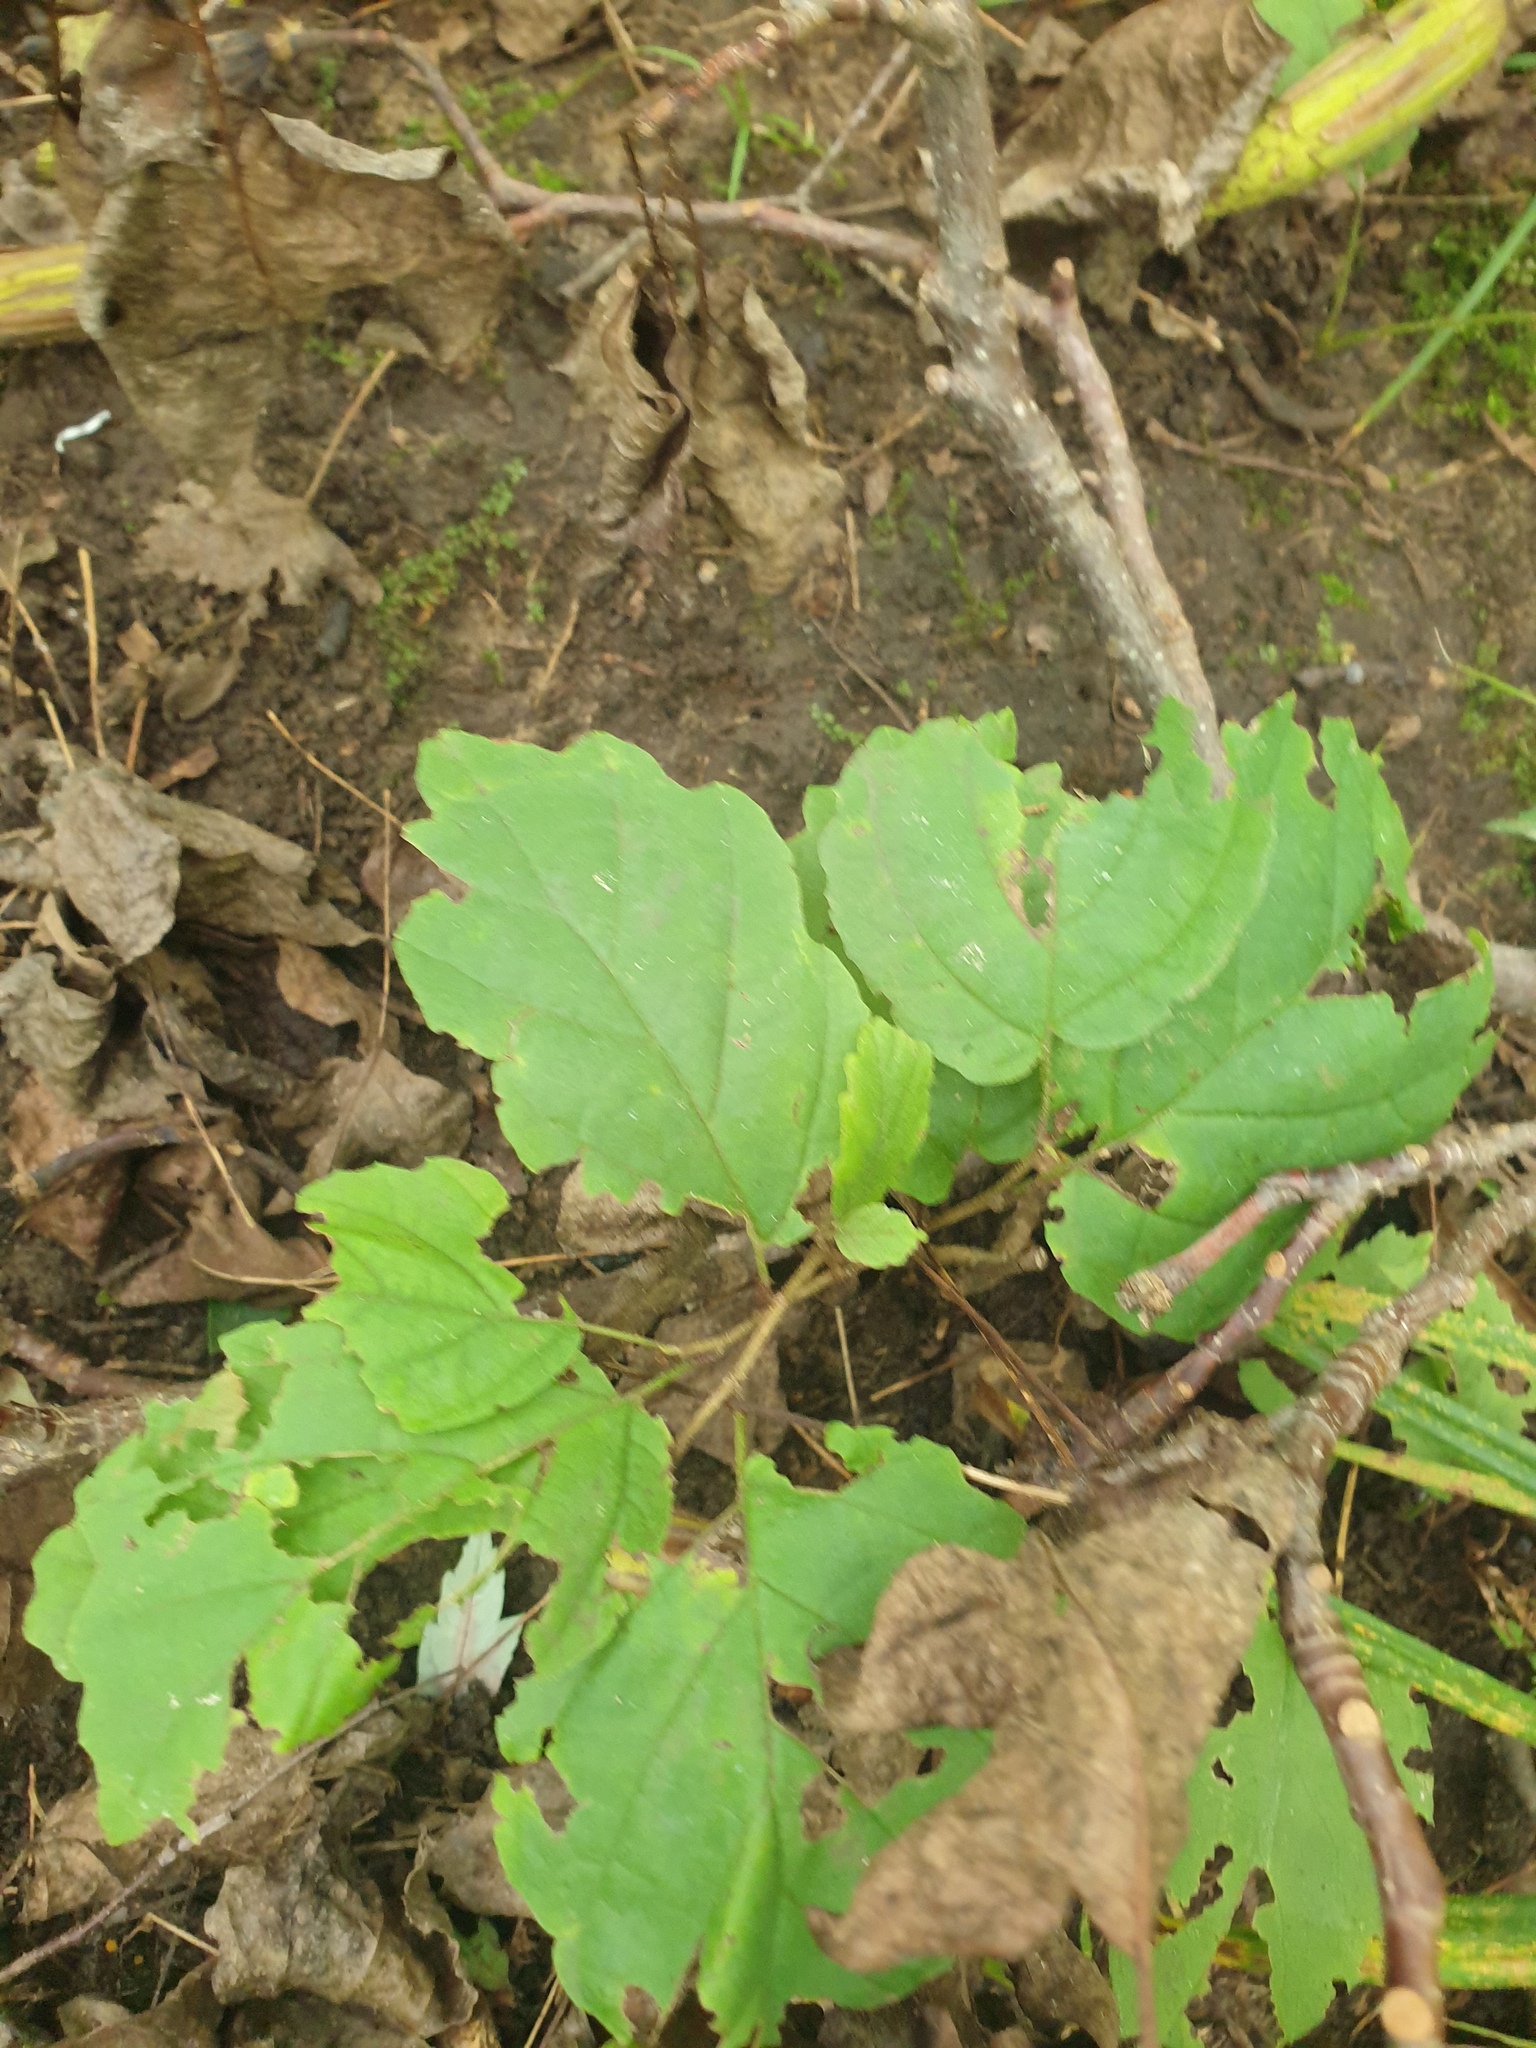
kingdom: Plantae
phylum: Tracheophyta
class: Magnoliopsida
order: Saxifragales
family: Hamamelidaceae
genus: Hamamelis
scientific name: Hamamelis virginiana
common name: Witch-hazel
